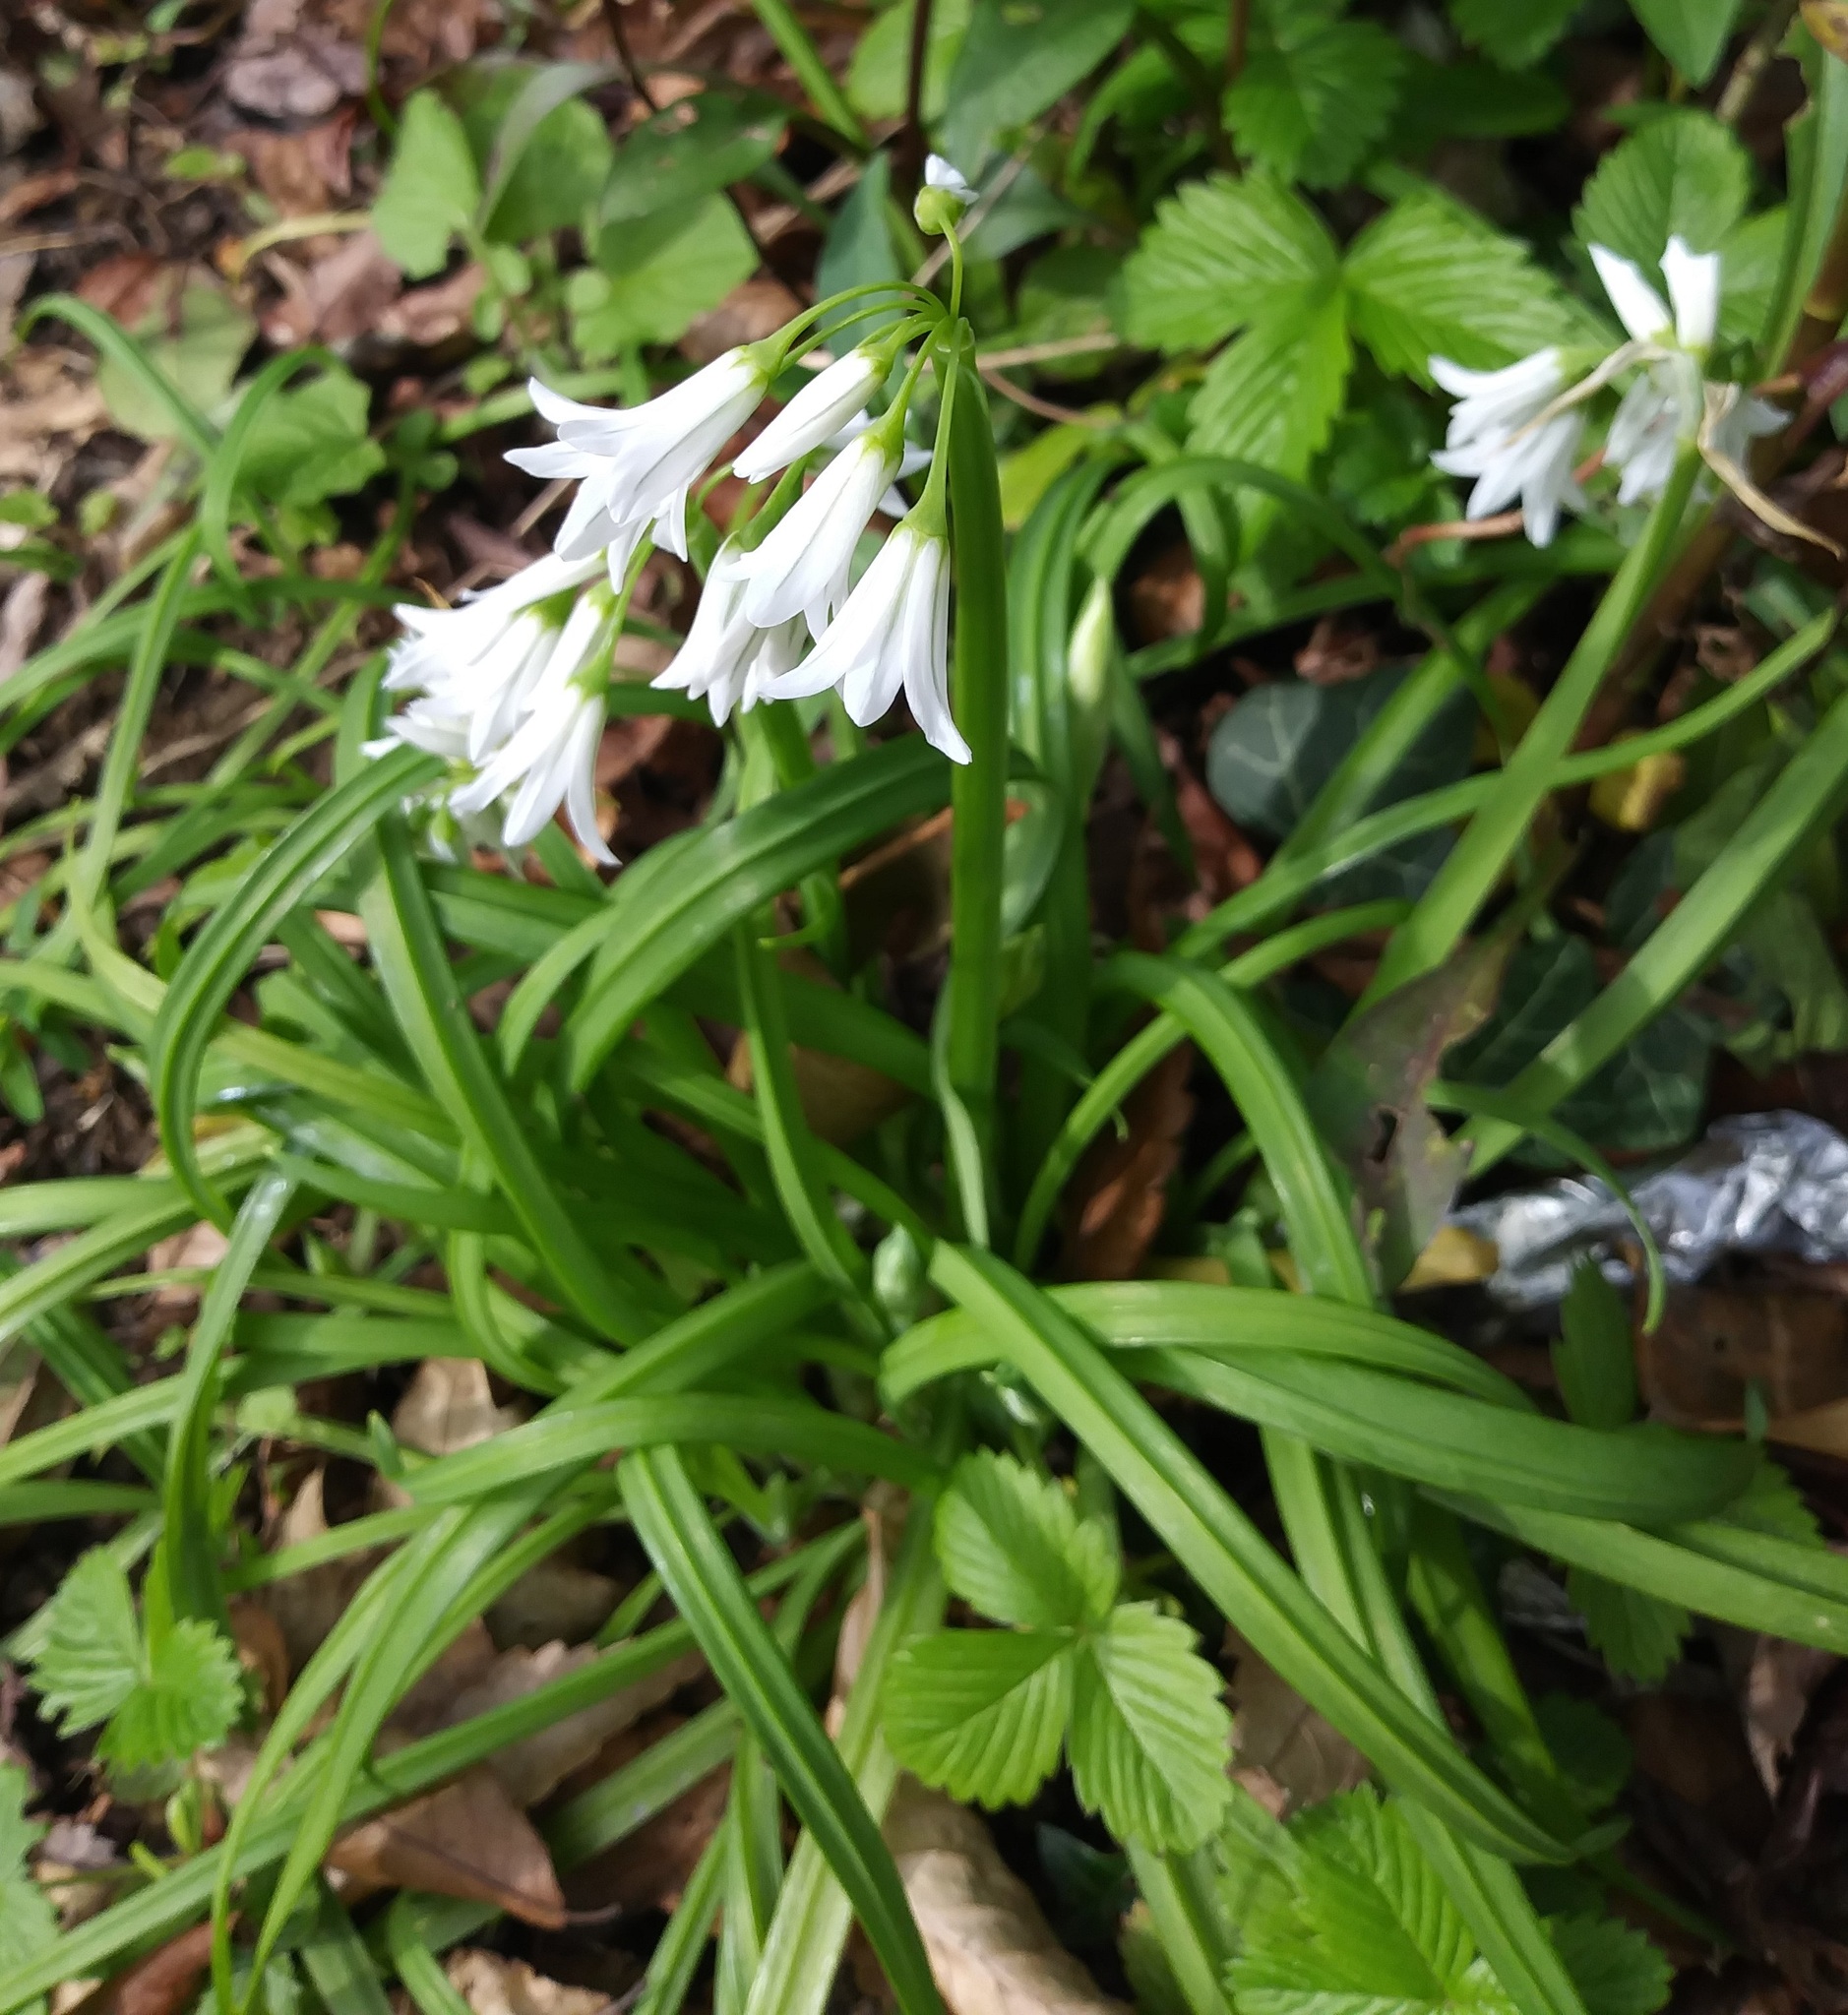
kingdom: Plantae
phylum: Tracheophyta
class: Liliopsida
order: Asparagales
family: Amaryllidaceae
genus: Allium
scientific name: Allium triquetrum
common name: Three-cornered garlic
